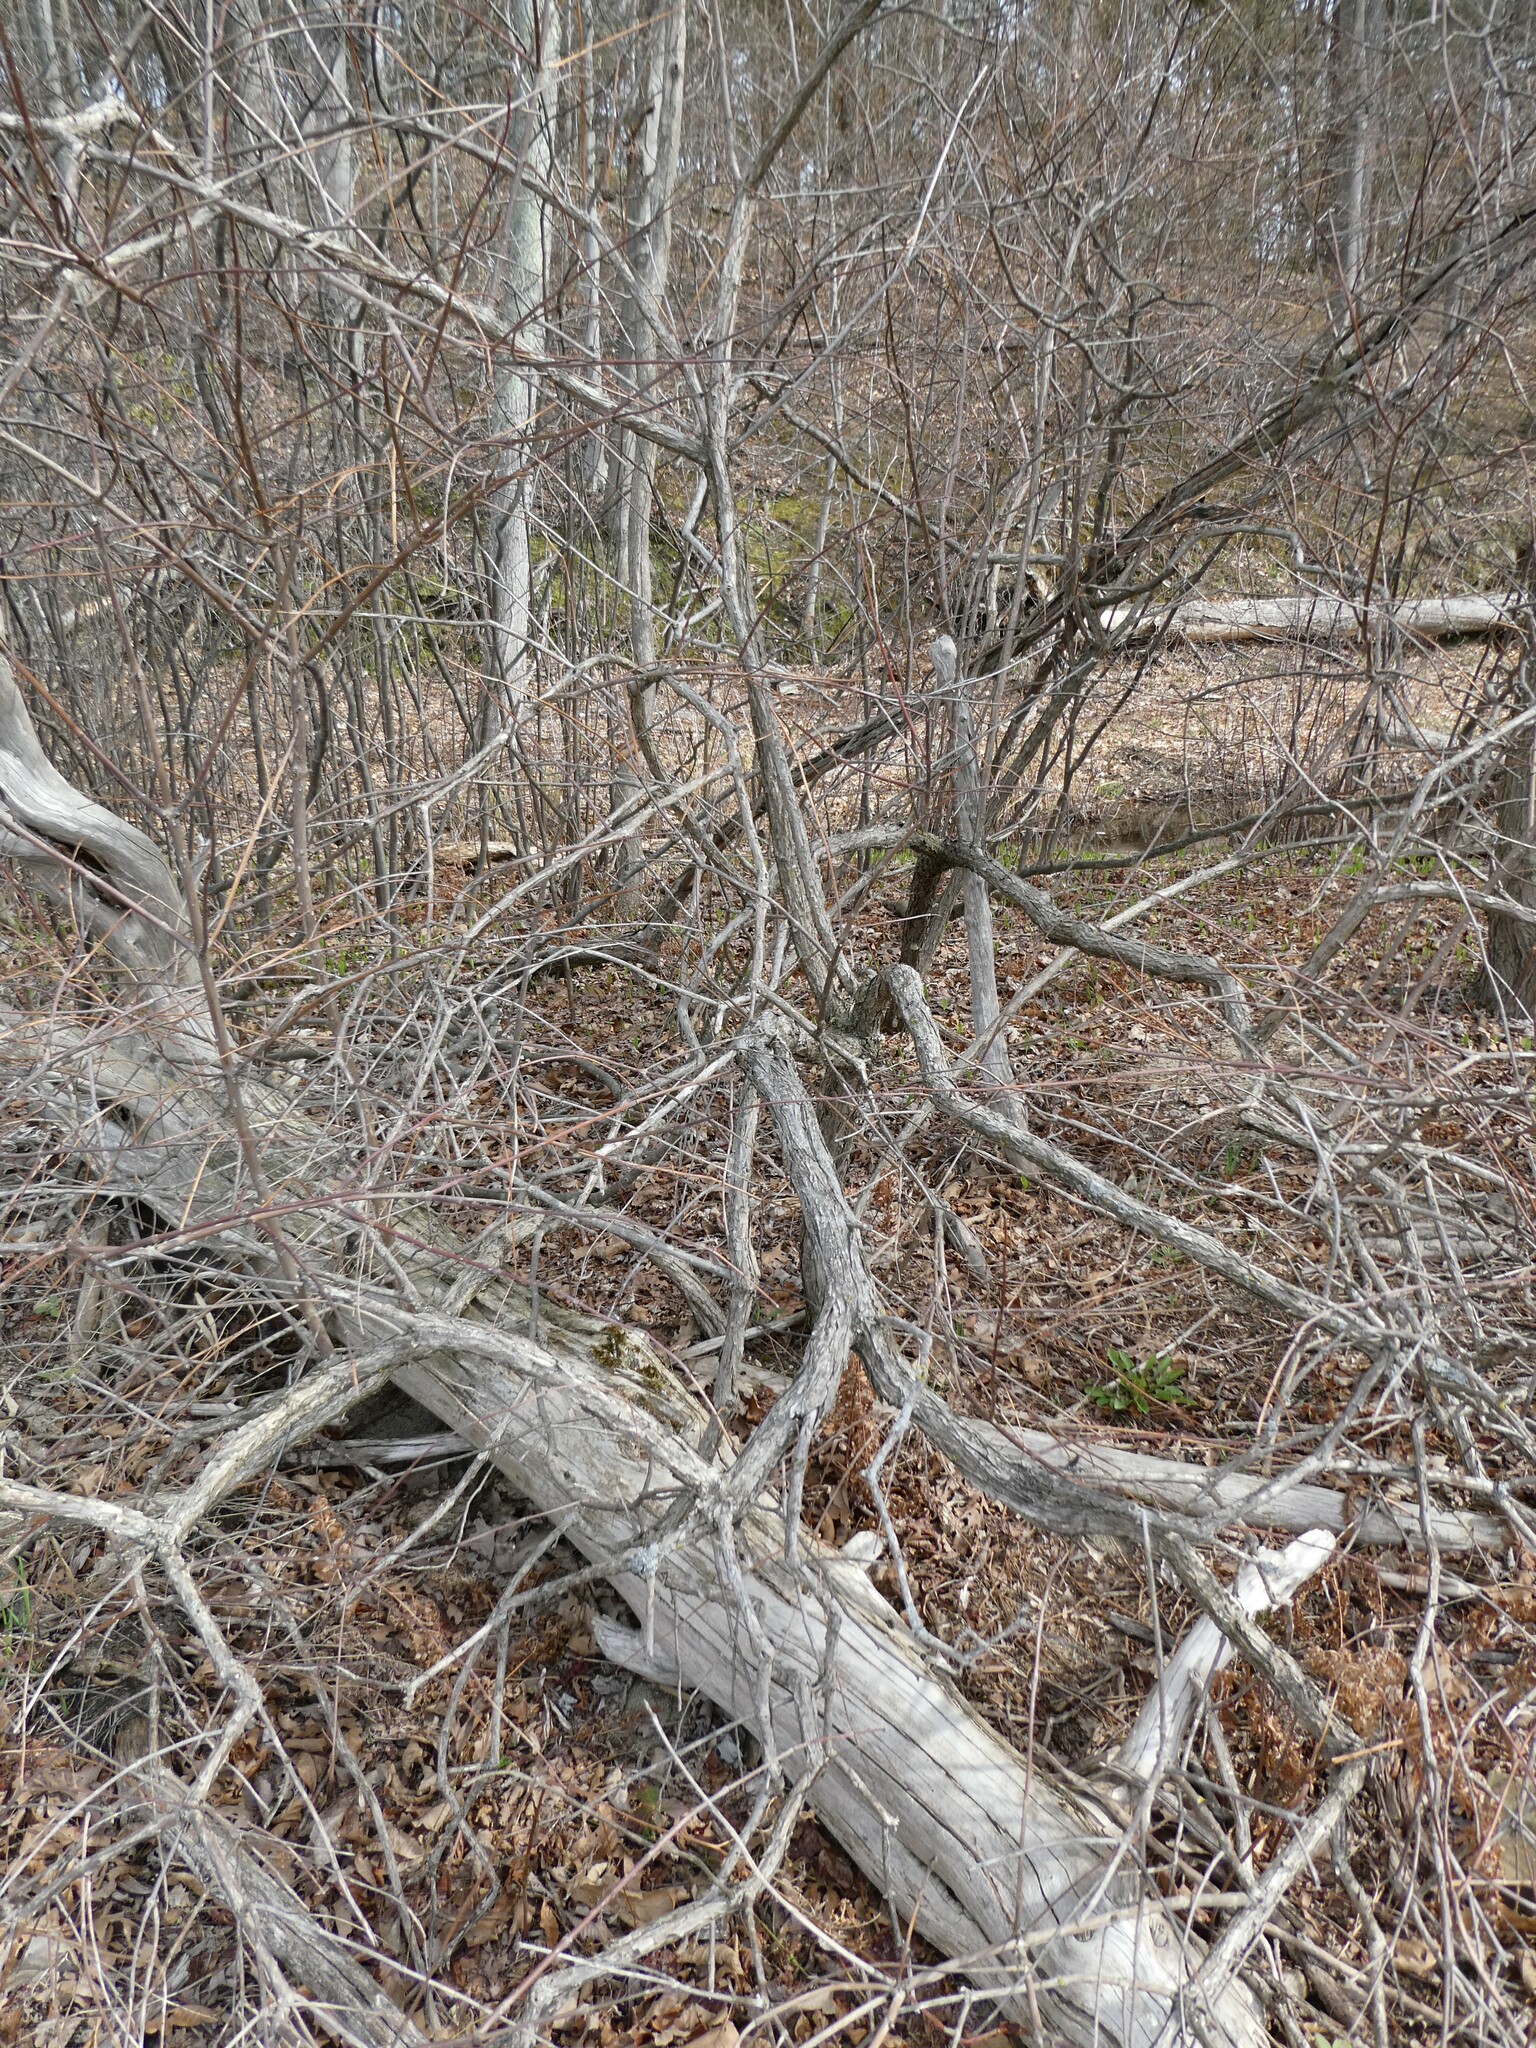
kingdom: Plantae
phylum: Tracheophyta
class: Magnoliopsida
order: Gentianales
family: Rubiaceae
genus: Cephalanthus
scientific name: Cephalanthus occidentalis
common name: Button-willow
